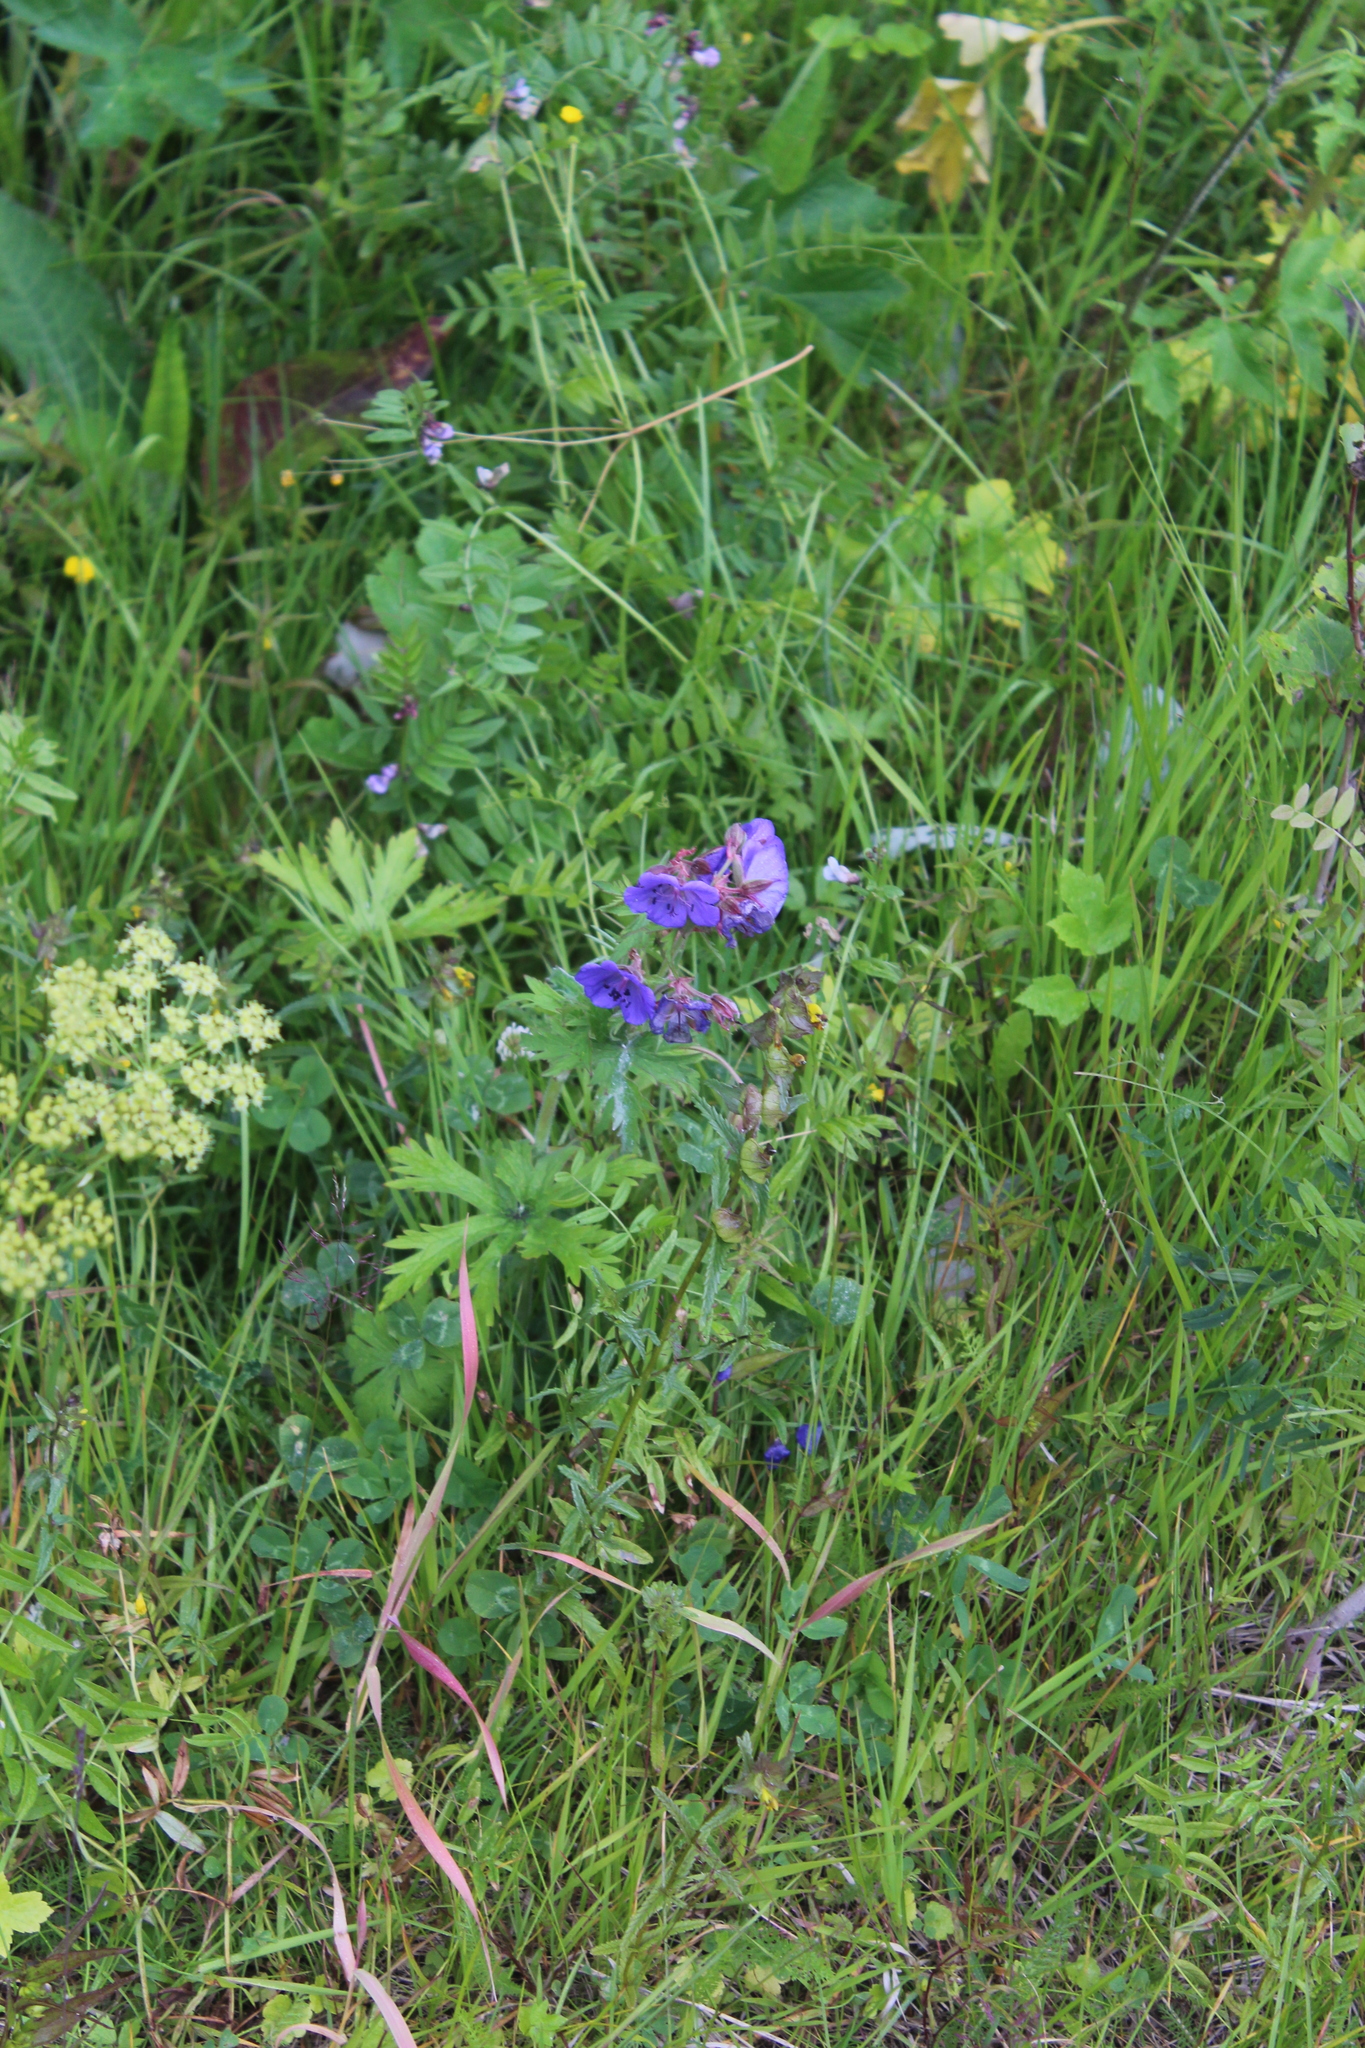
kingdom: Plantae
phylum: Tracheophyta
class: Magnoliopsida
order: Geraniales
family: Geraniaceae
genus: Geranium
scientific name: Geranium pratense
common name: Meadow crane's-bill
